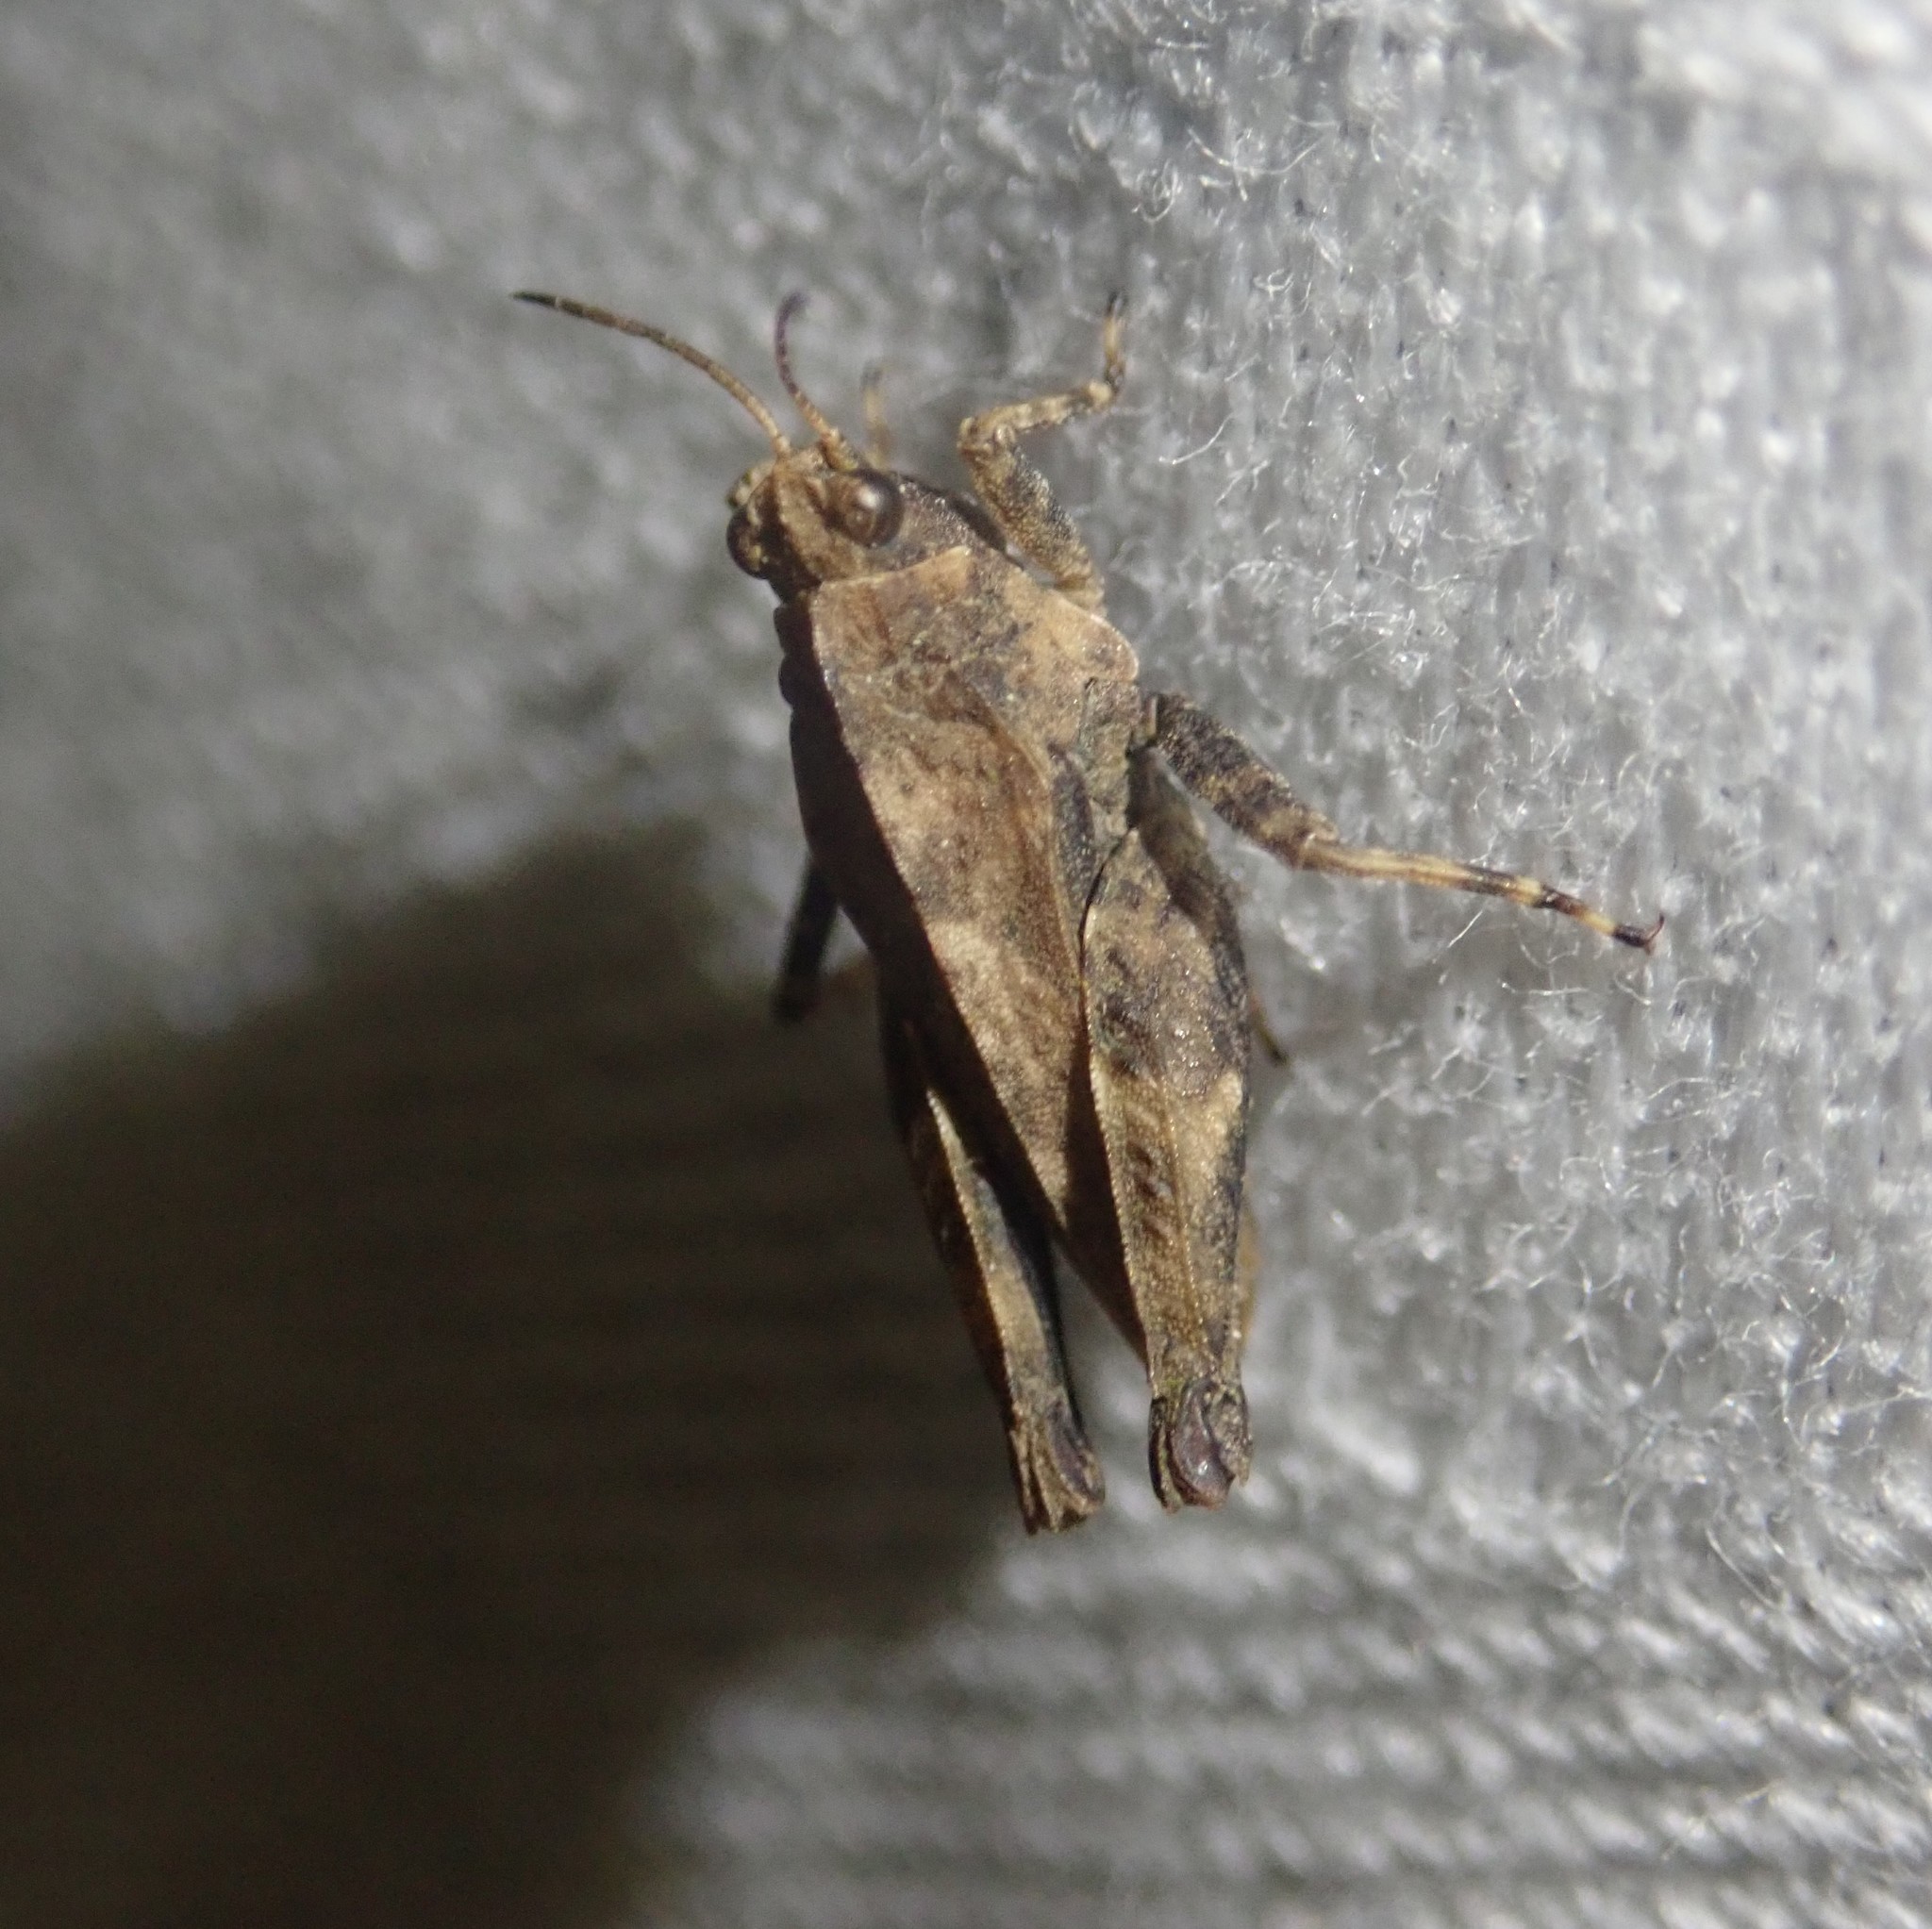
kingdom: Animalia
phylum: Arthropoda
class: Insecta
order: Orthoptera
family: Tetrigidae
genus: Tetrix
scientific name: Tetrix undulata
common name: Common groundhopper
